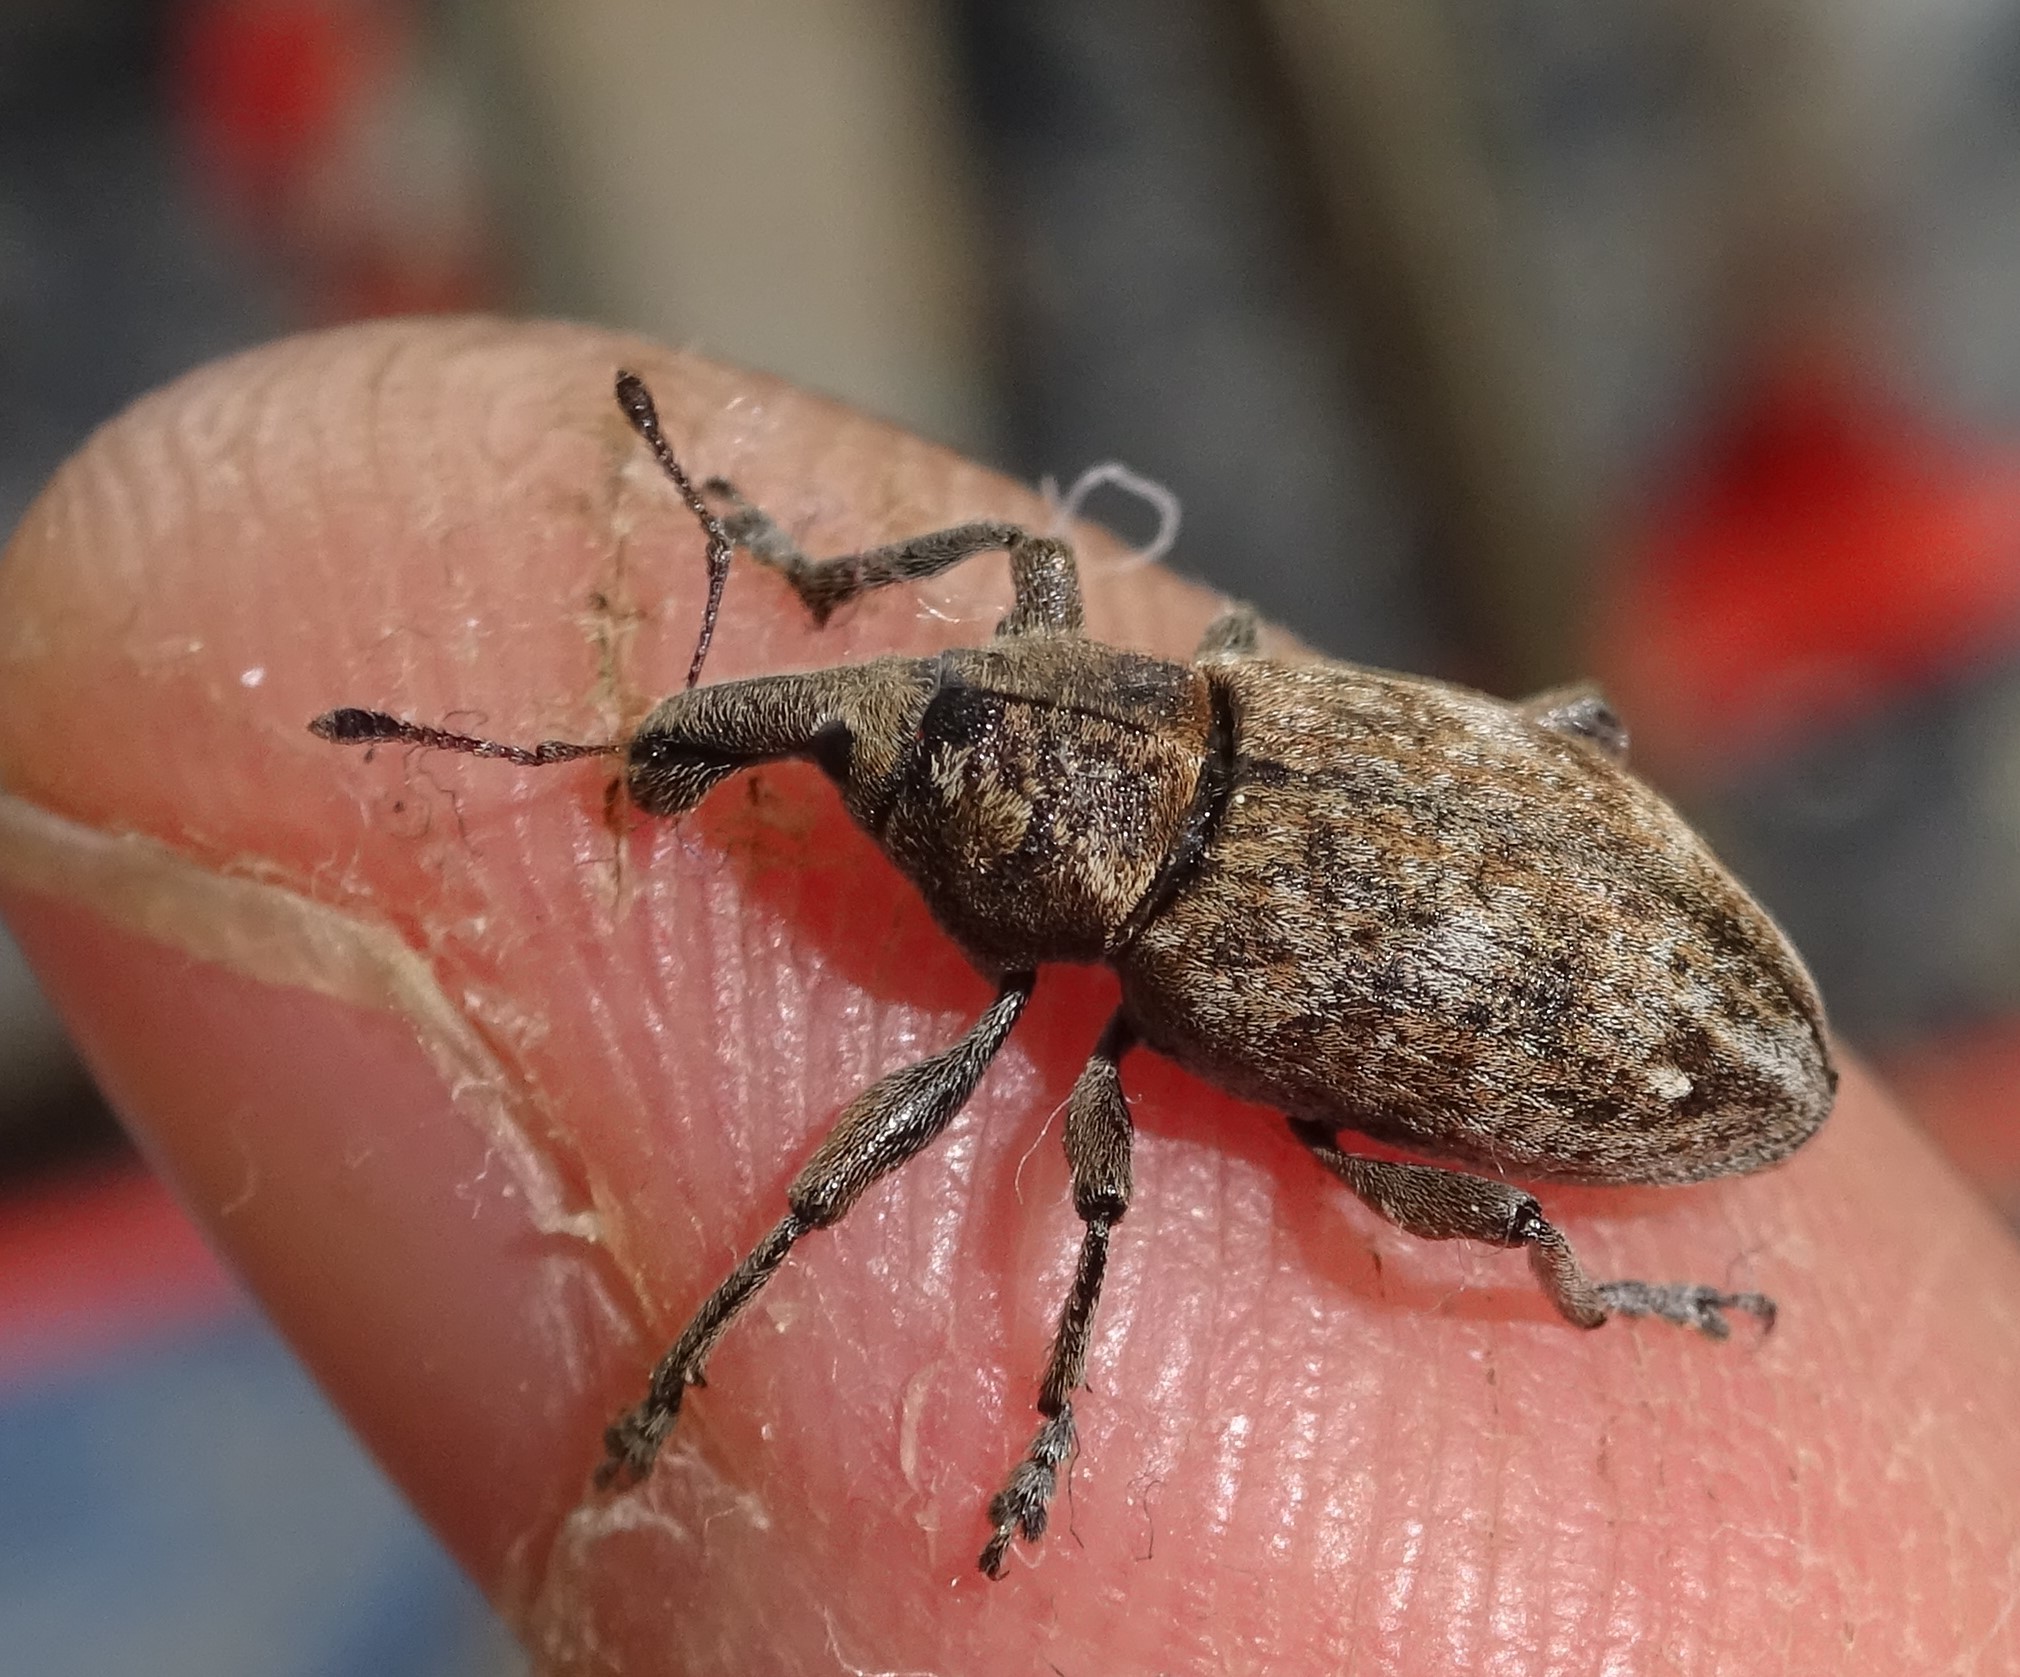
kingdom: Animalia
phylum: Arthropoda
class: Insecta
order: Coleoptera
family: Curculionidae
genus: Lepyrus
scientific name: Lepyrus capucinus
